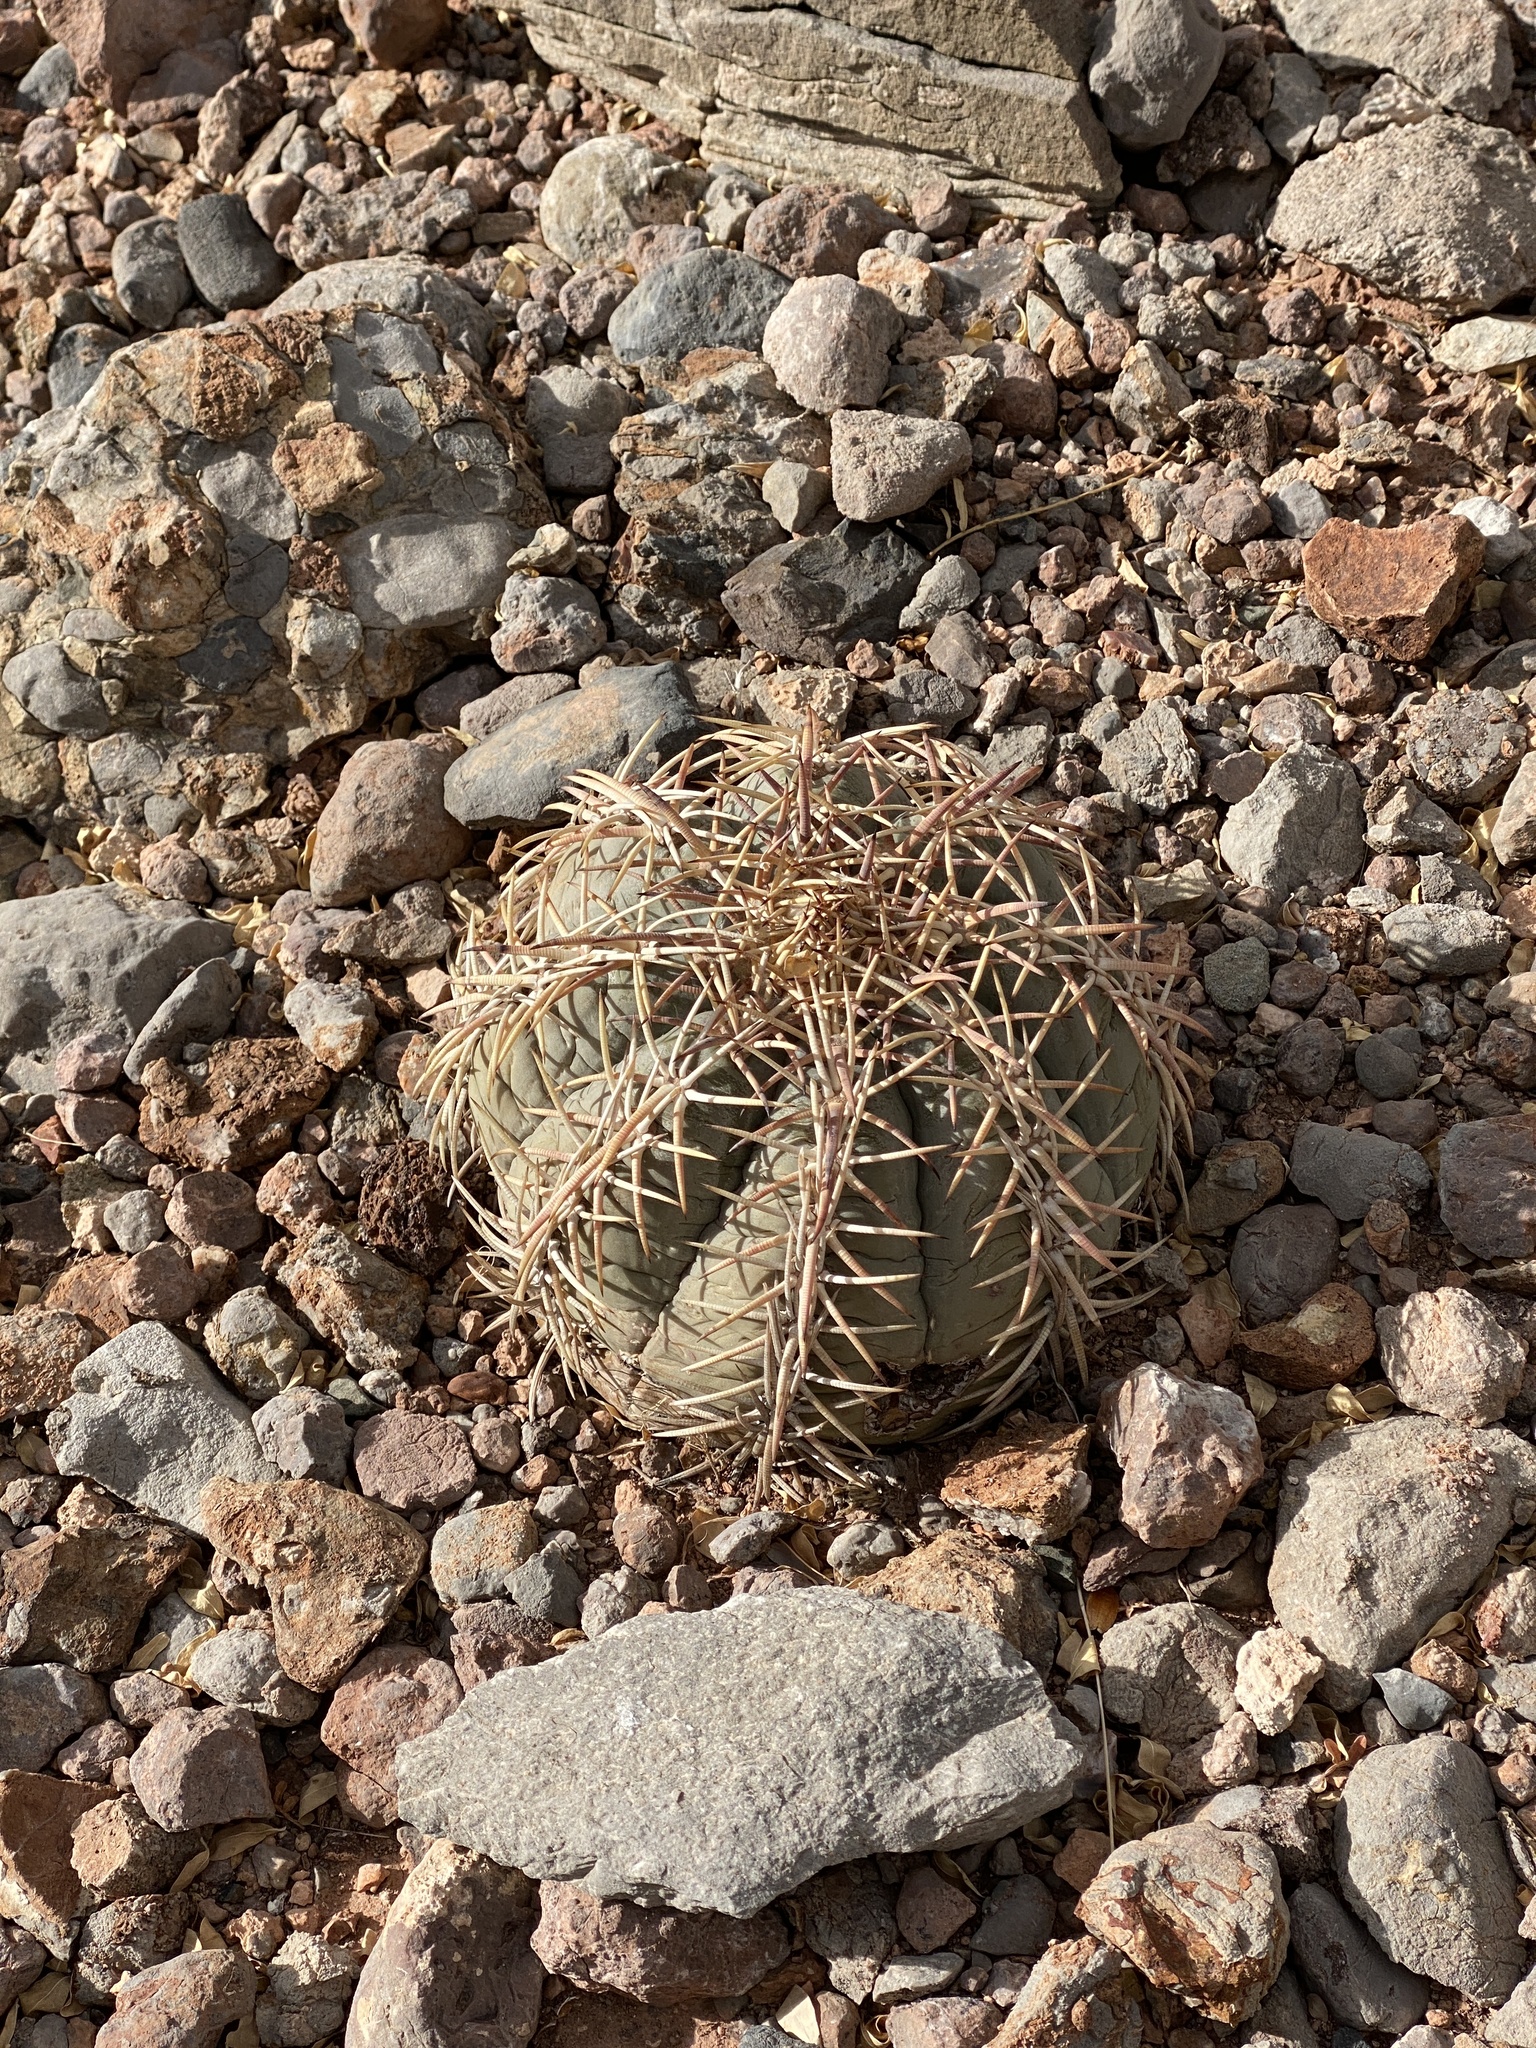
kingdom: Plantae
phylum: Tracheophyta
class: Magnoliopsida
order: Caryophyllales
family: Cactaceae
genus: Echinocactus
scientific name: Echinocactus horizonthalonius
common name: Devilshead
